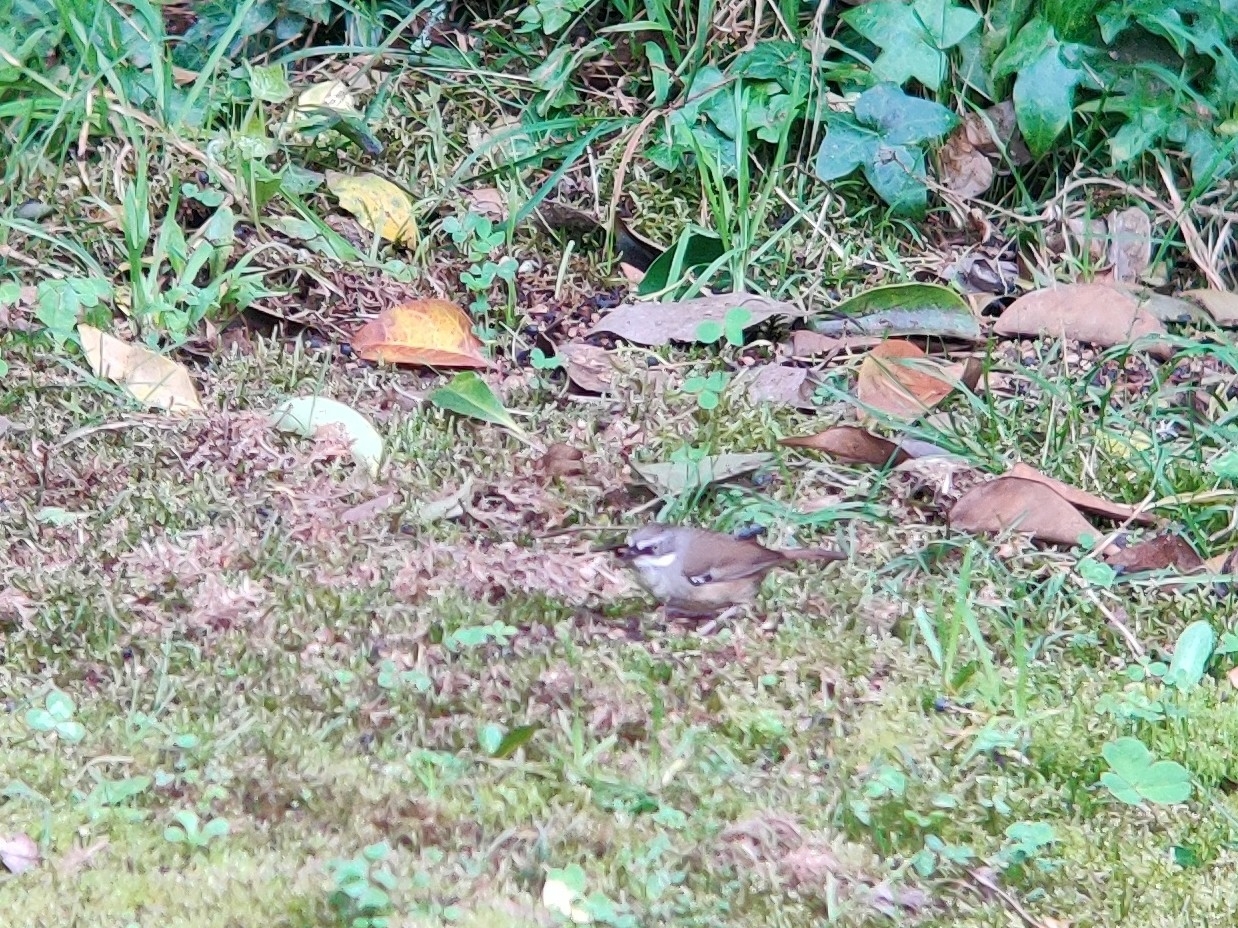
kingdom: Animalia
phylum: Chordata
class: Aves
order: Passeriformes
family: Acanthizidae
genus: Sericornis
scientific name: Sericornis frontalis
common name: White-browed scrubwren
